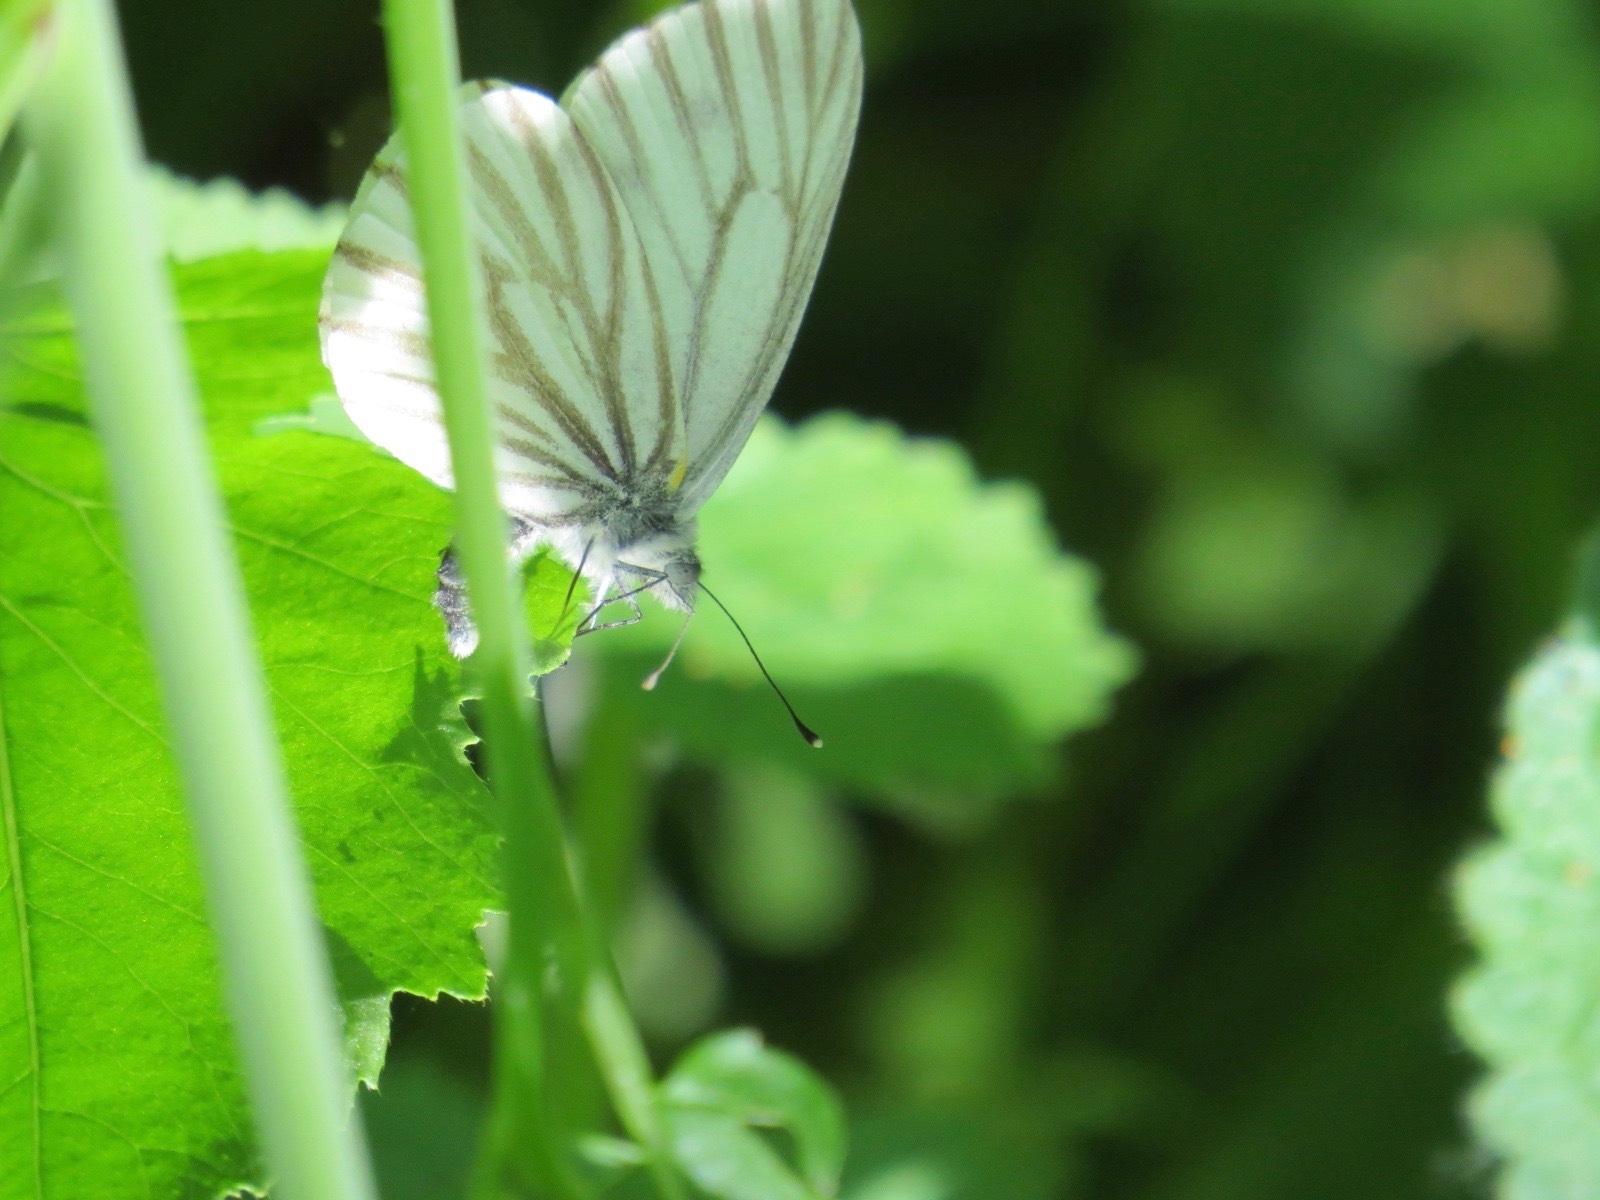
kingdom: Animalia
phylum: Arthropoda
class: Insecta
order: Lepidoptera
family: Pieridae
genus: Pieris
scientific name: Pieris marginalis
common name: Margined white
